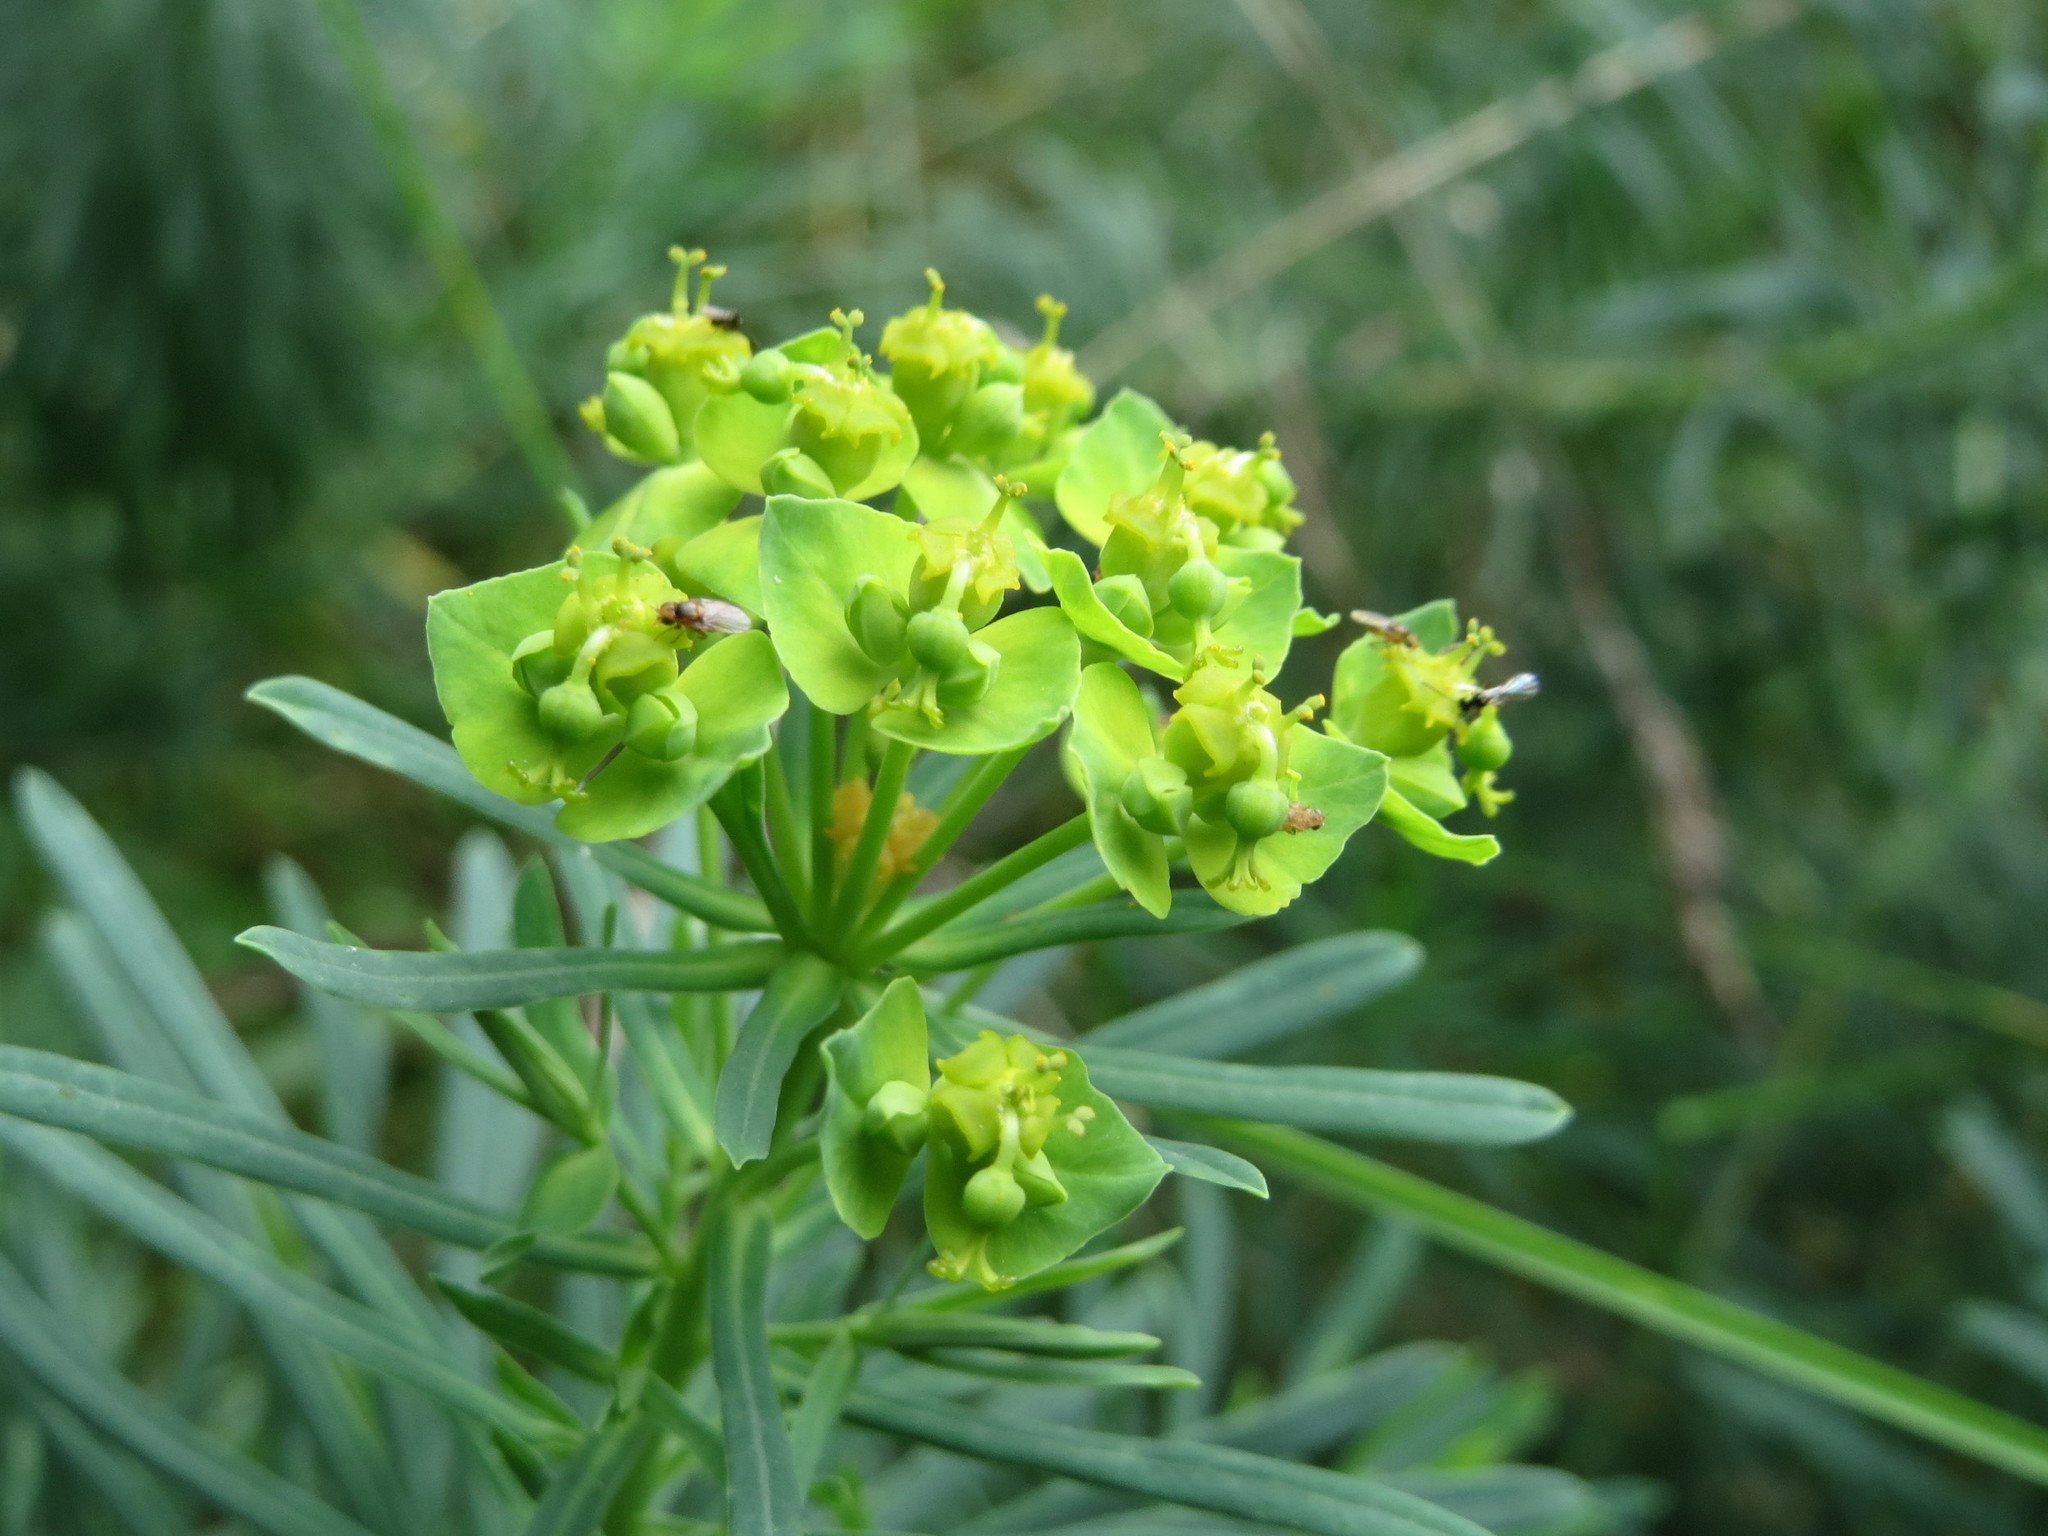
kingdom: Plantae
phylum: Tracheophyta
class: Magnoliopsida
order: Malpighiales
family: Euphorbiaceae
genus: Euphorbia
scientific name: Euphorbia cyparissias
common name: Cypress spurge
